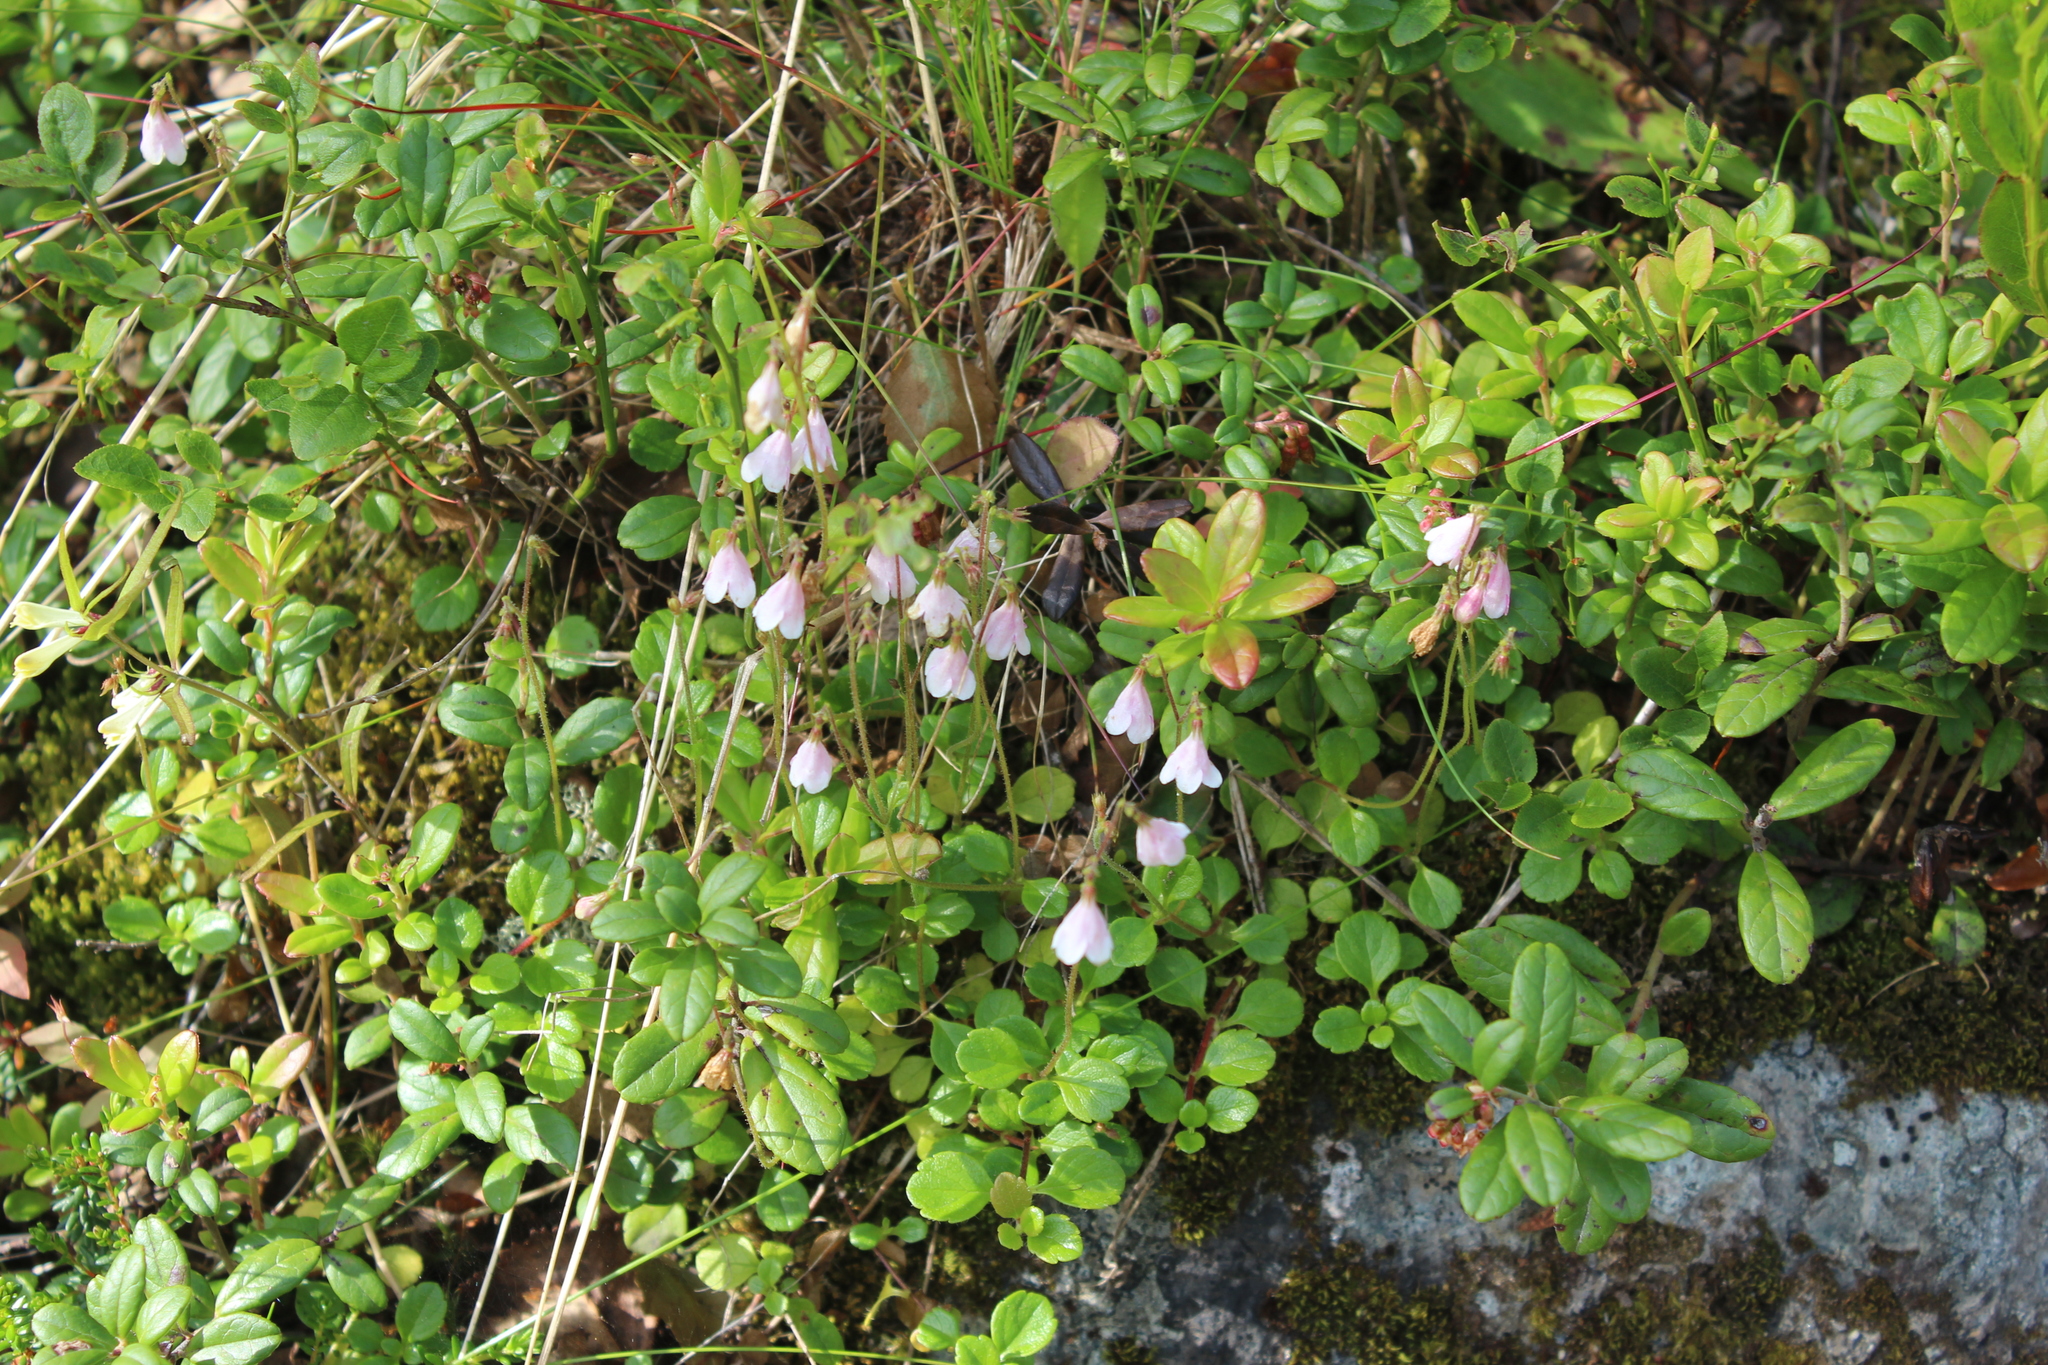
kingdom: Plantae
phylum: Tracheophyta
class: Magnoliopsida
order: Dipsacales
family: Caprifoliaceae
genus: Linnaea
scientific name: Linnaea borealis
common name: Twinflower
